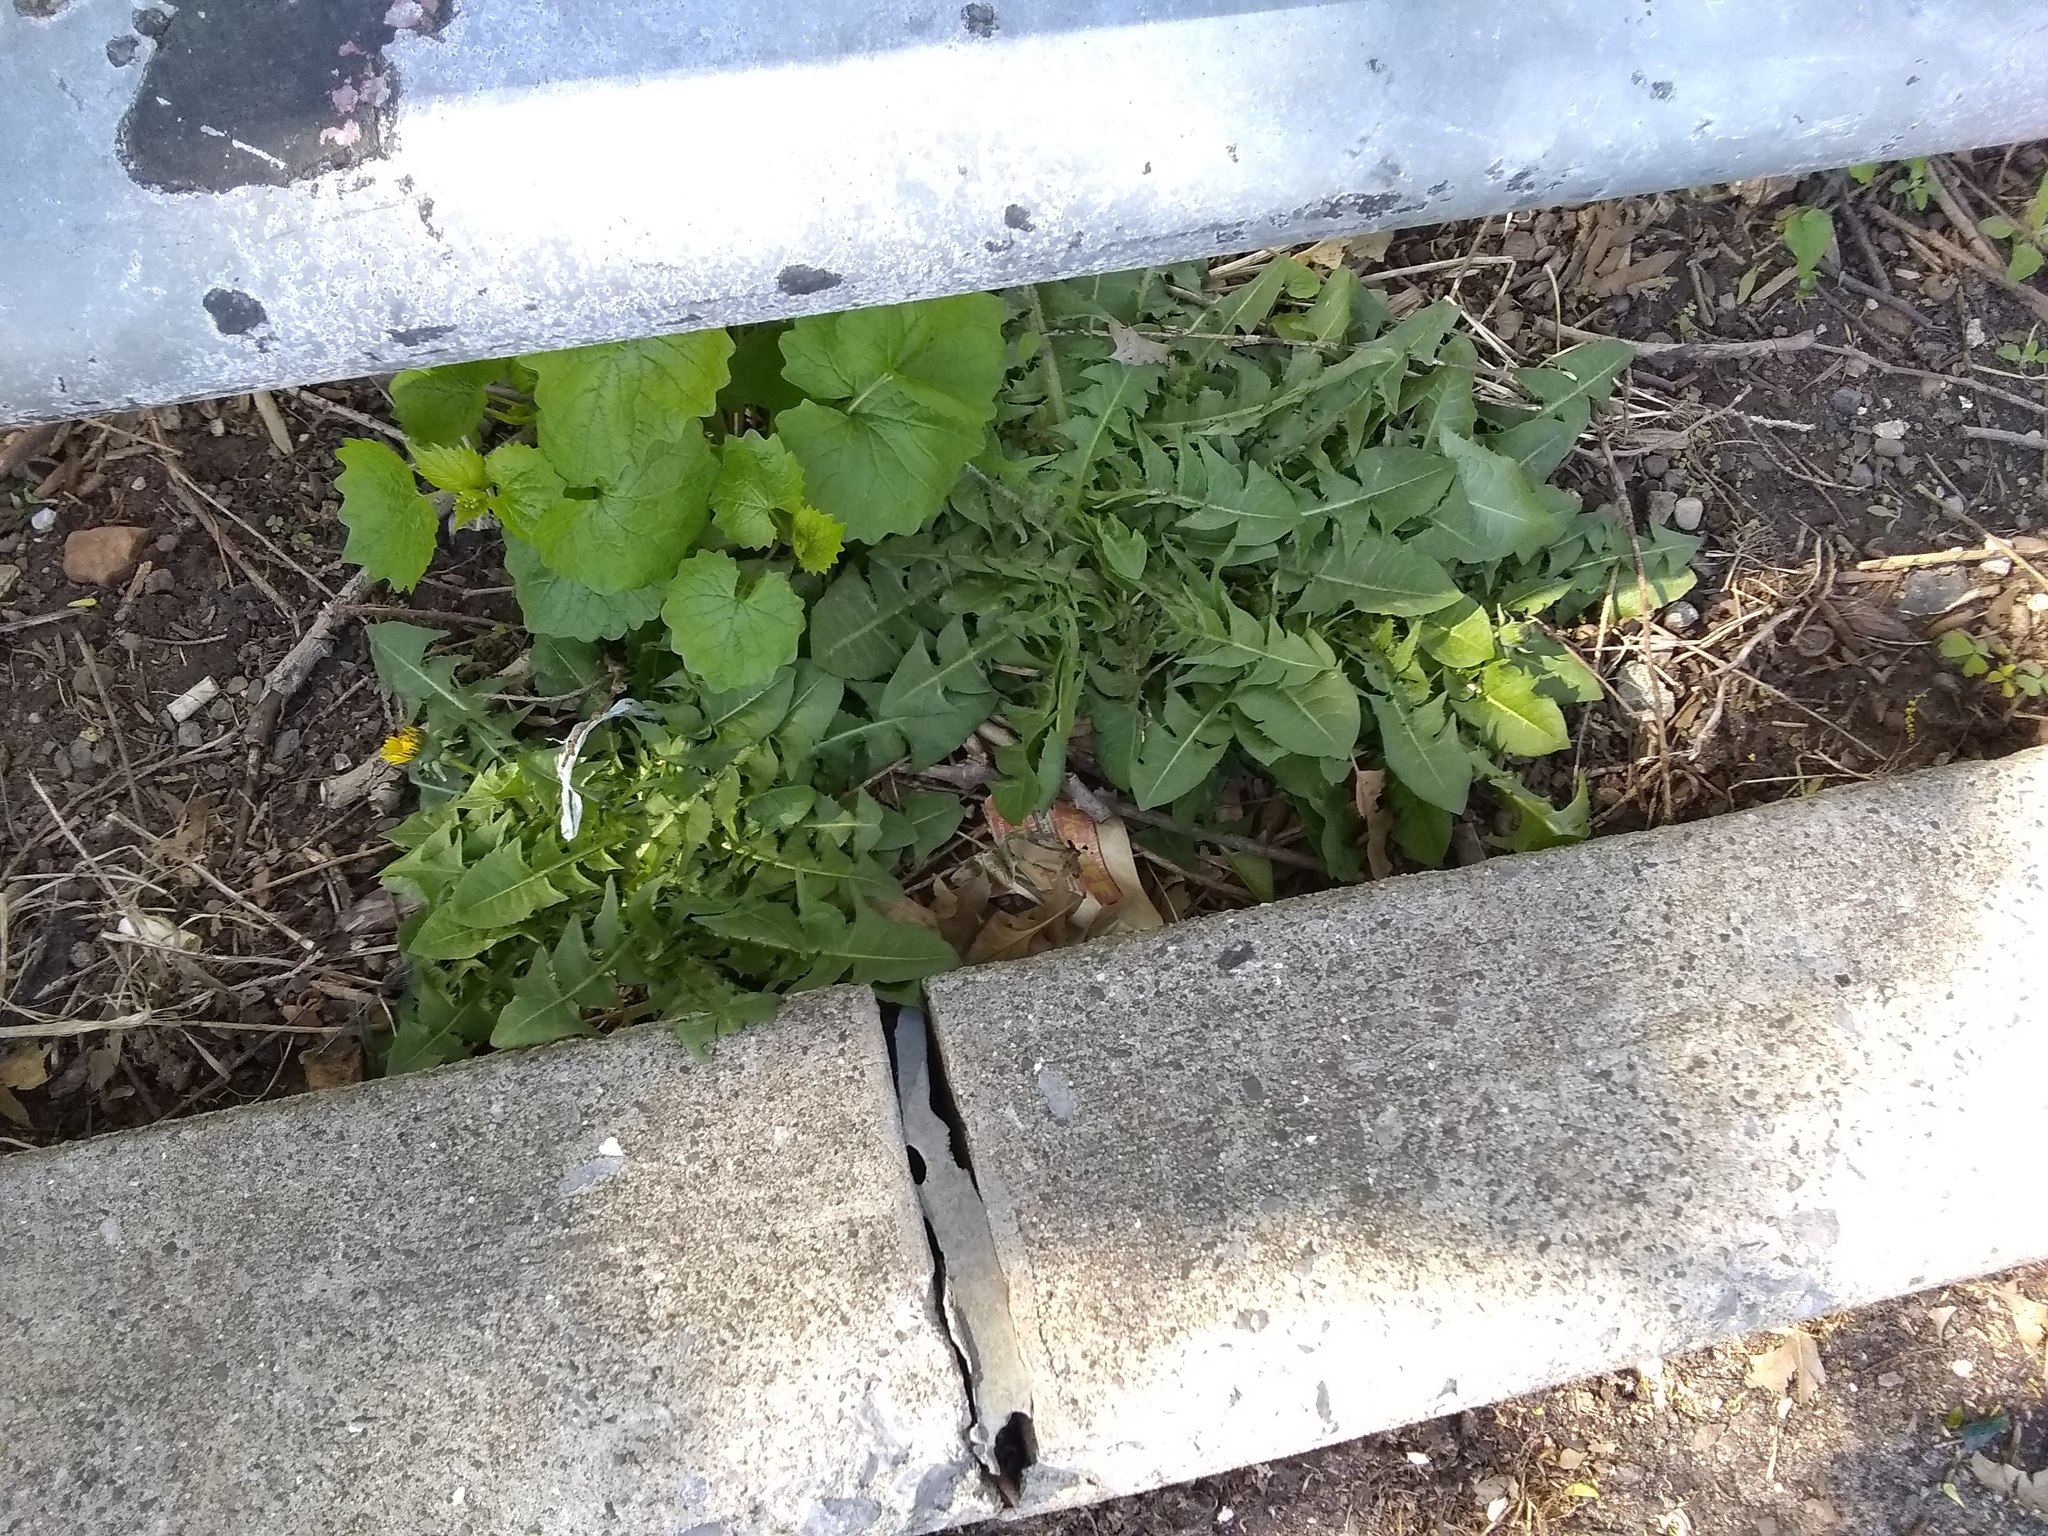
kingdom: Plantae
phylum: Tracheophyta
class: Magnoliopsida
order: Asterales
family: Asteraceae
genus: Taraxacum
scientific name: Taraxacum officinale
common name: Common dandelion
